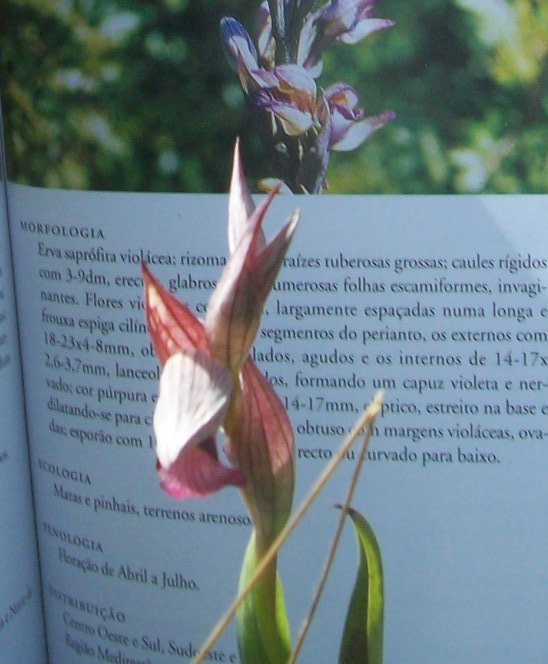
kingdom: Plantae
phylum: Tracheophyta
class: Liliopsida
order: Asparagales
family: Orchidaceae
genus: Serapias
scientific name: Serapias lingua
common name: Tongue-orchid
